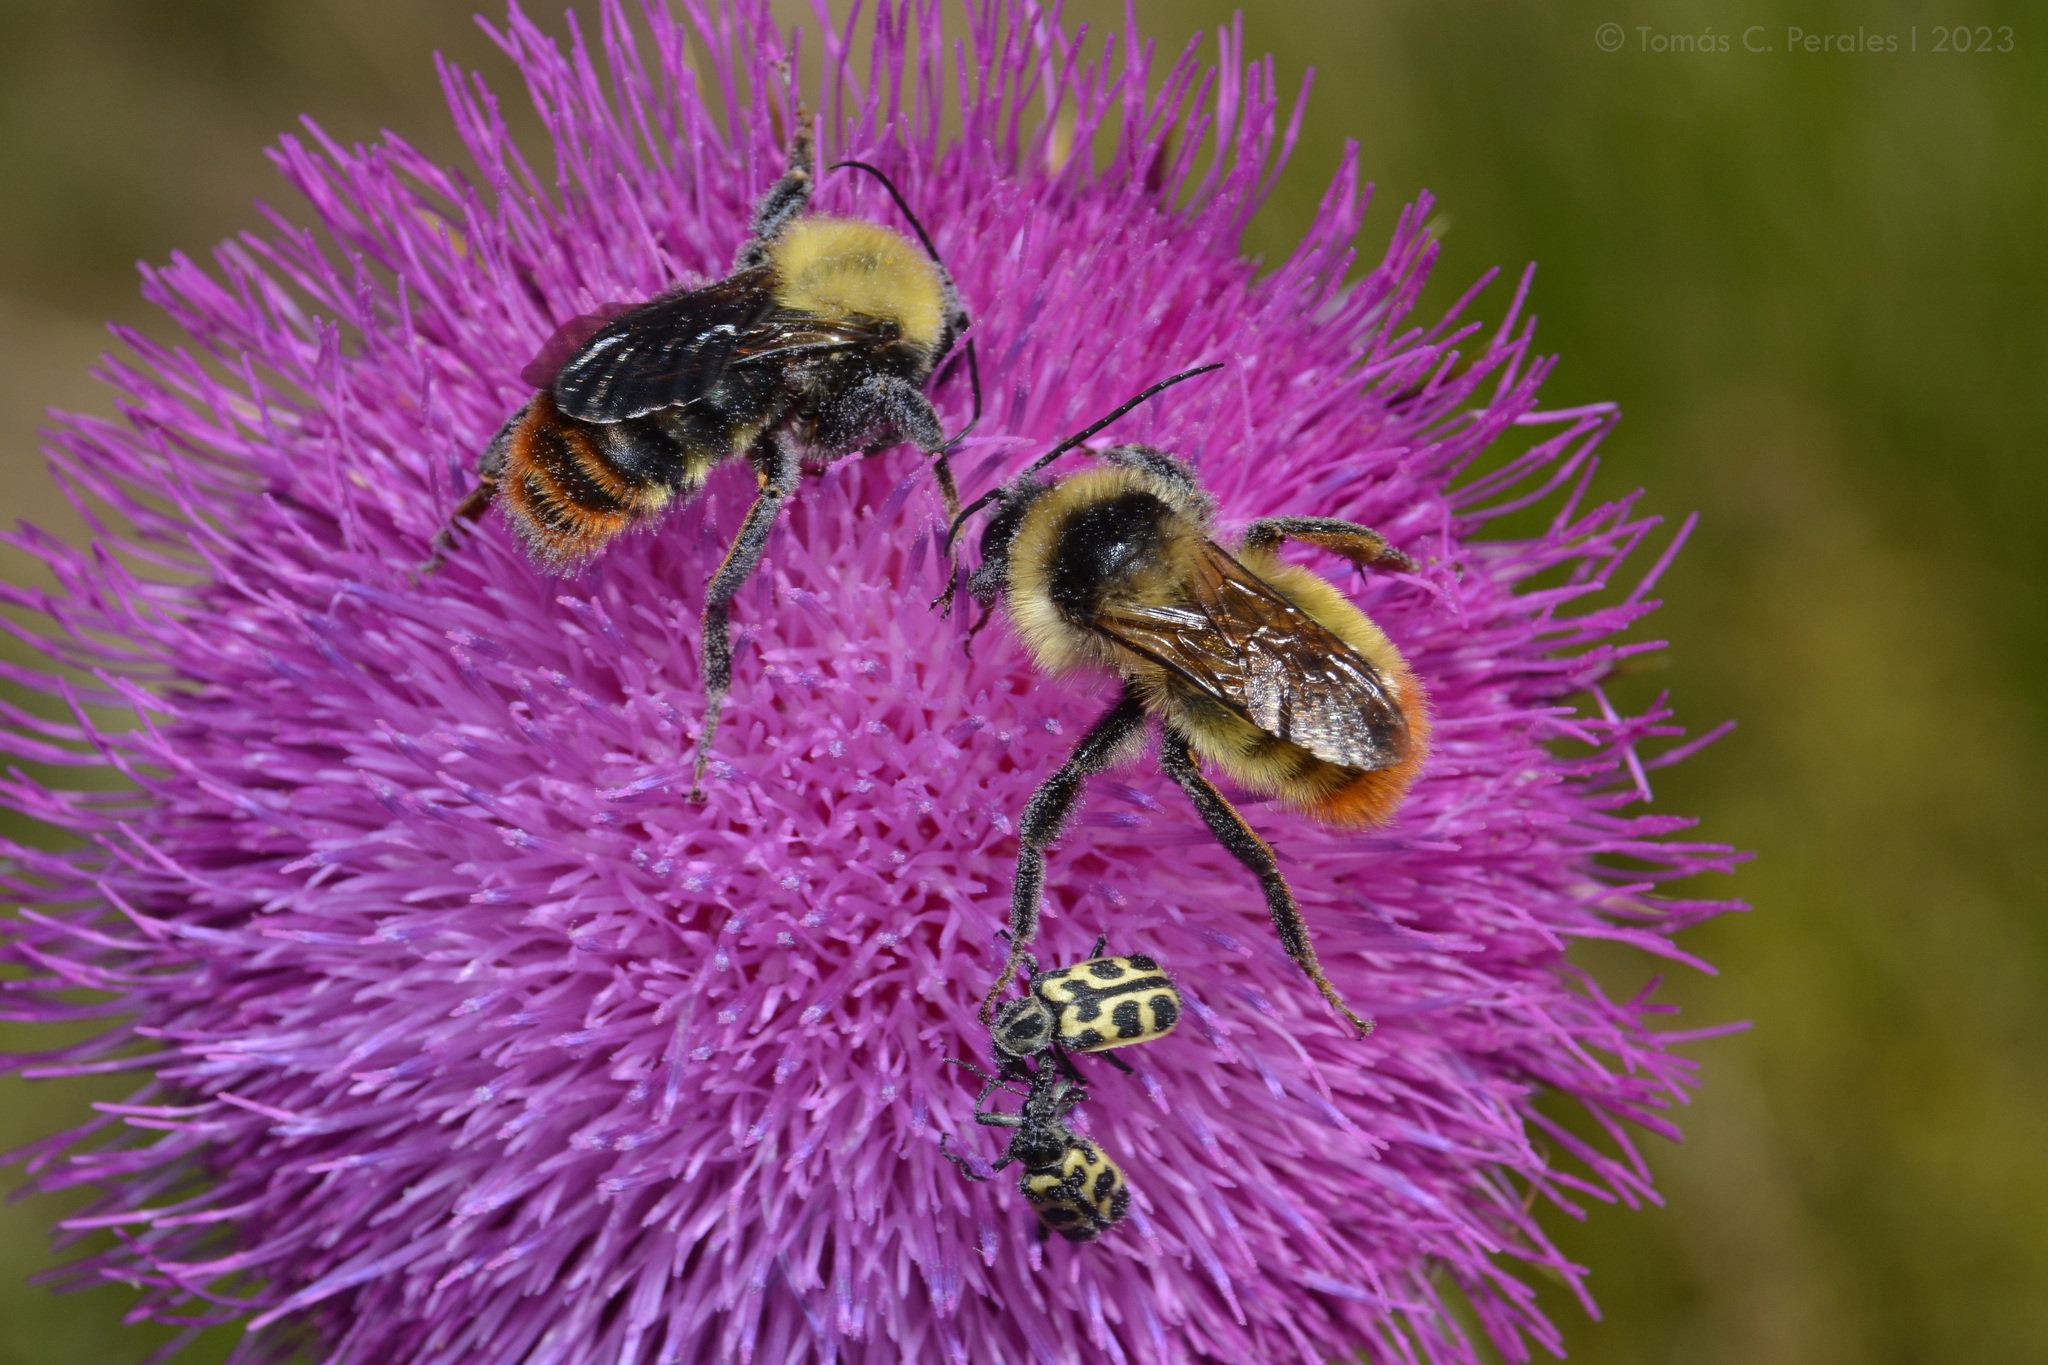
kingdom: Animalia
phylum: Arthropoda
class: Insecta
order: Hymenoptera
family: Apidae
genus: Bombus
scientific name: Bombus bellicosus
